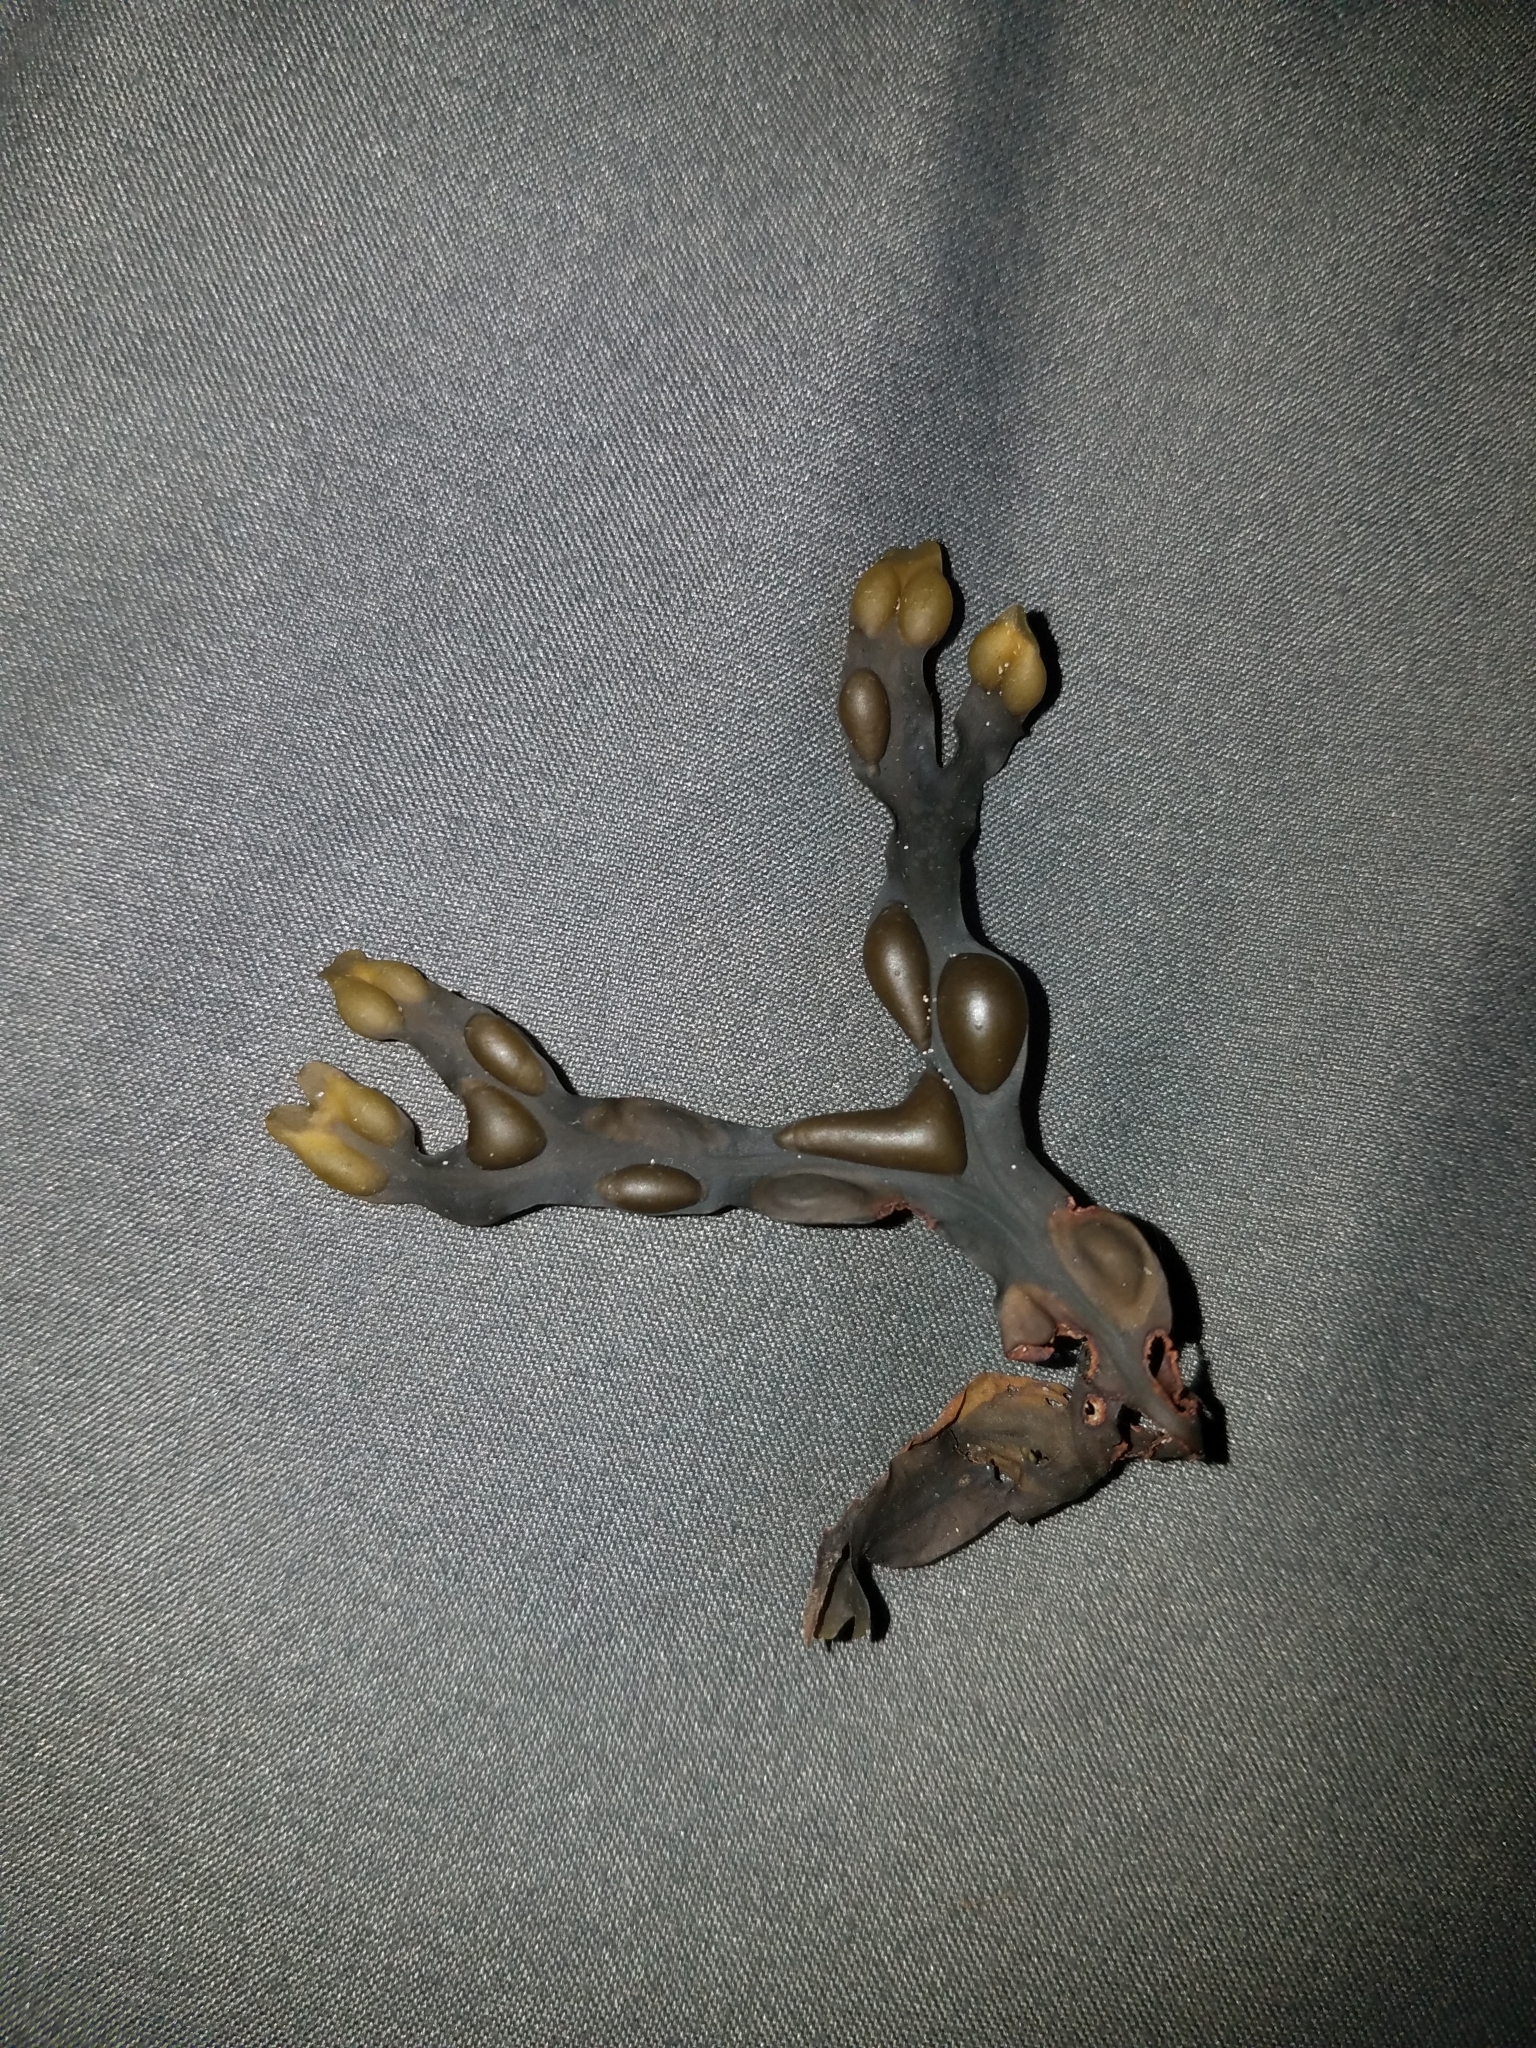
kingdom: Chromista
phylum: Ochrophyta
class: Phaeophyceae
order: Fucales
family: Fucaceae
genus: Fucus
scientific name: Fucus vesiculosus
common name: Bladder wrack
